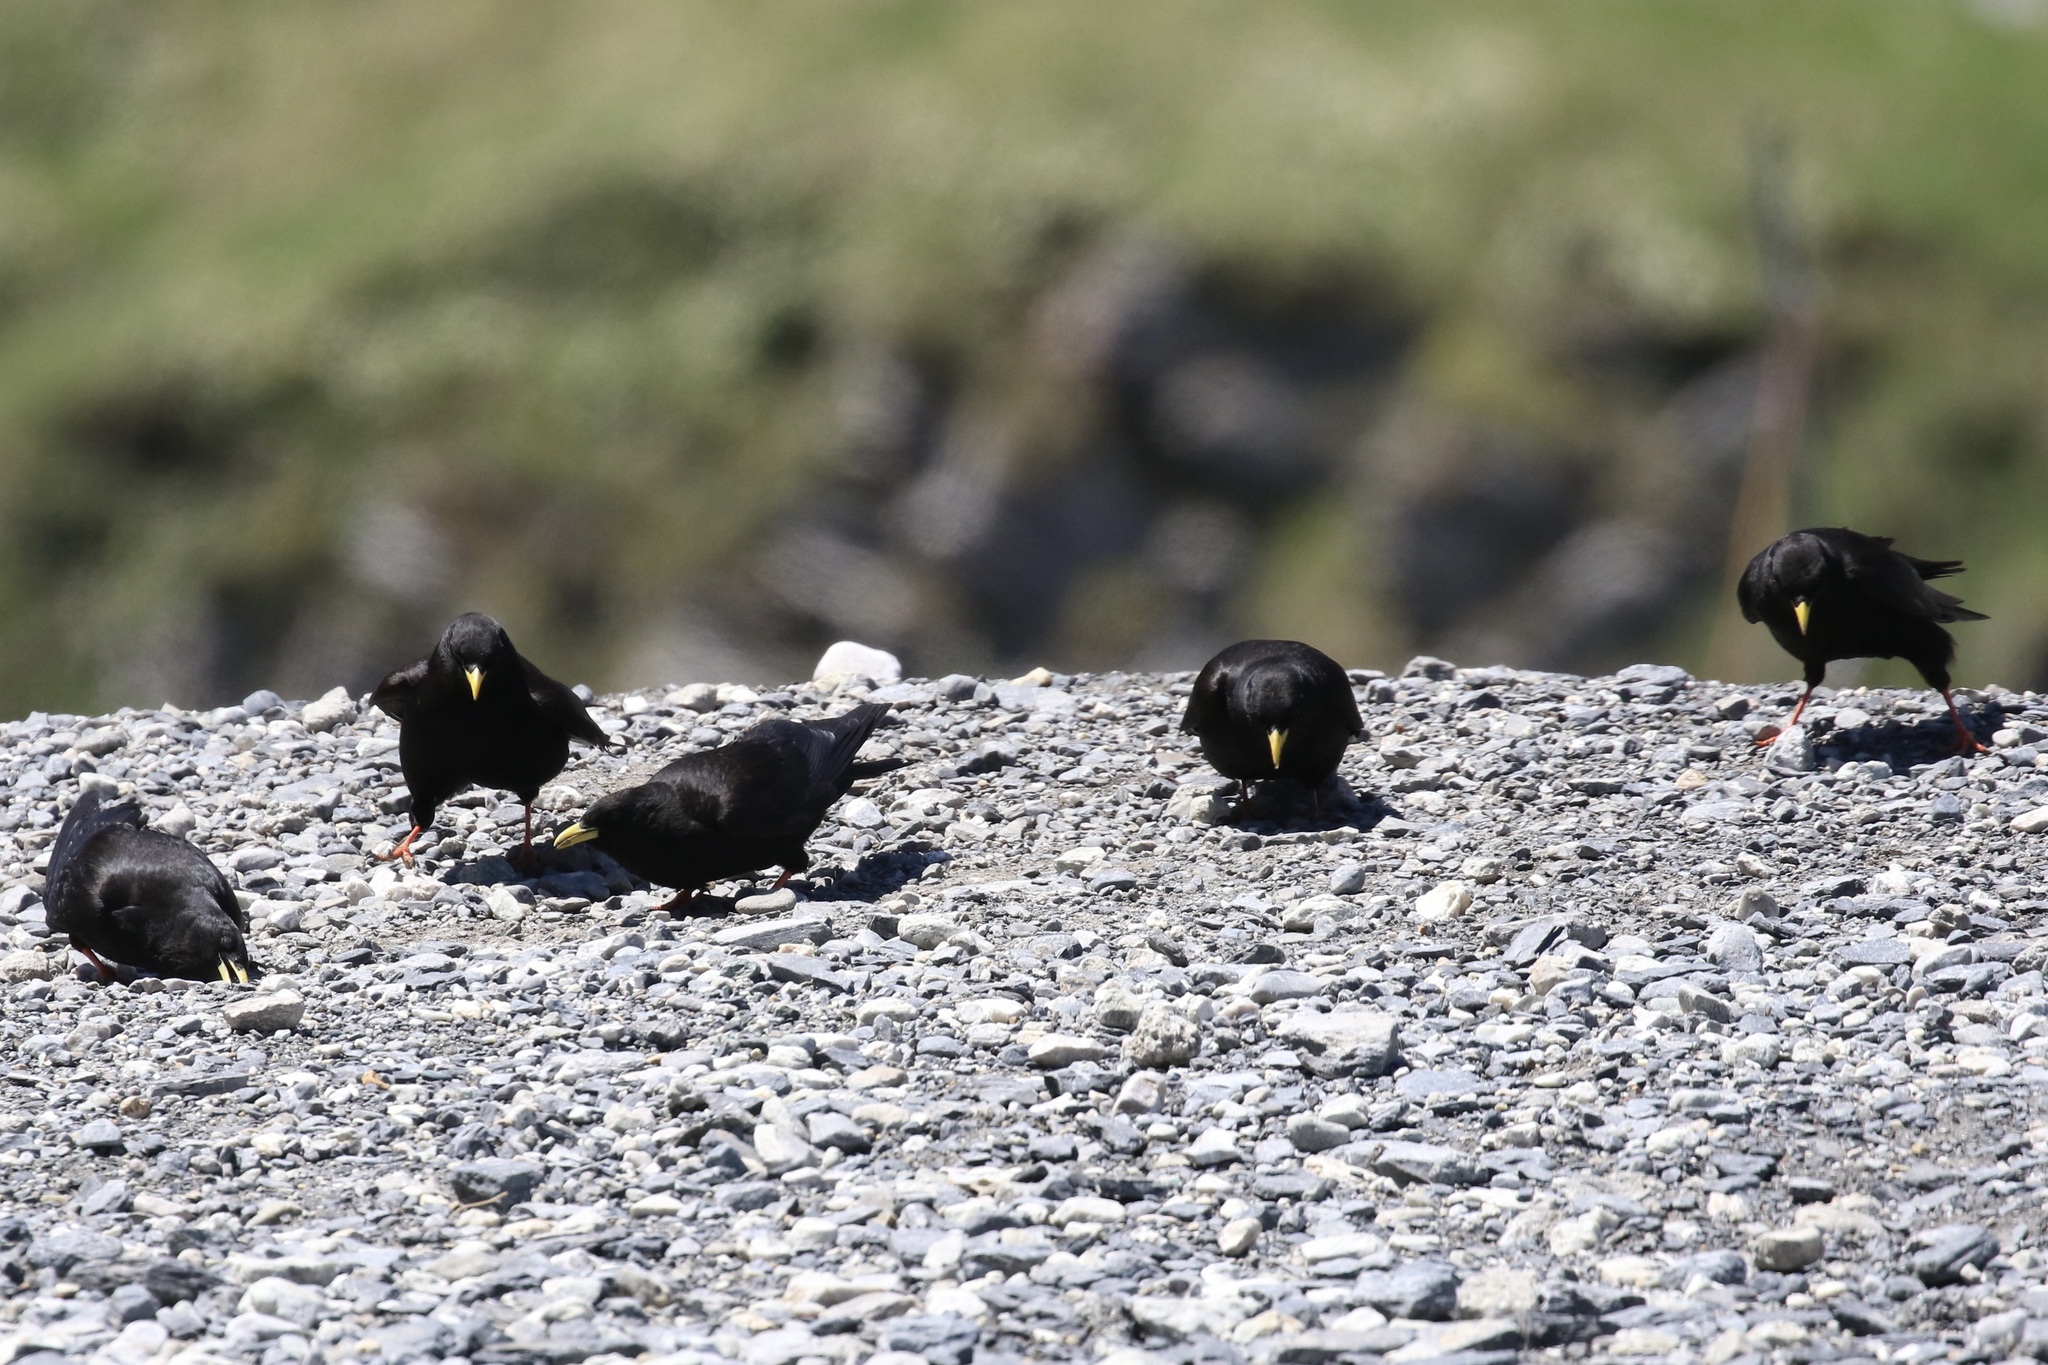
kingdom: Animalia
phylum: Chordata
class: Aves
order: Passeriformes
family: Corvidae
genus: Pyrrhocorax
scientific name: Pyrrhocorax graculus
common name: Alpine chough
